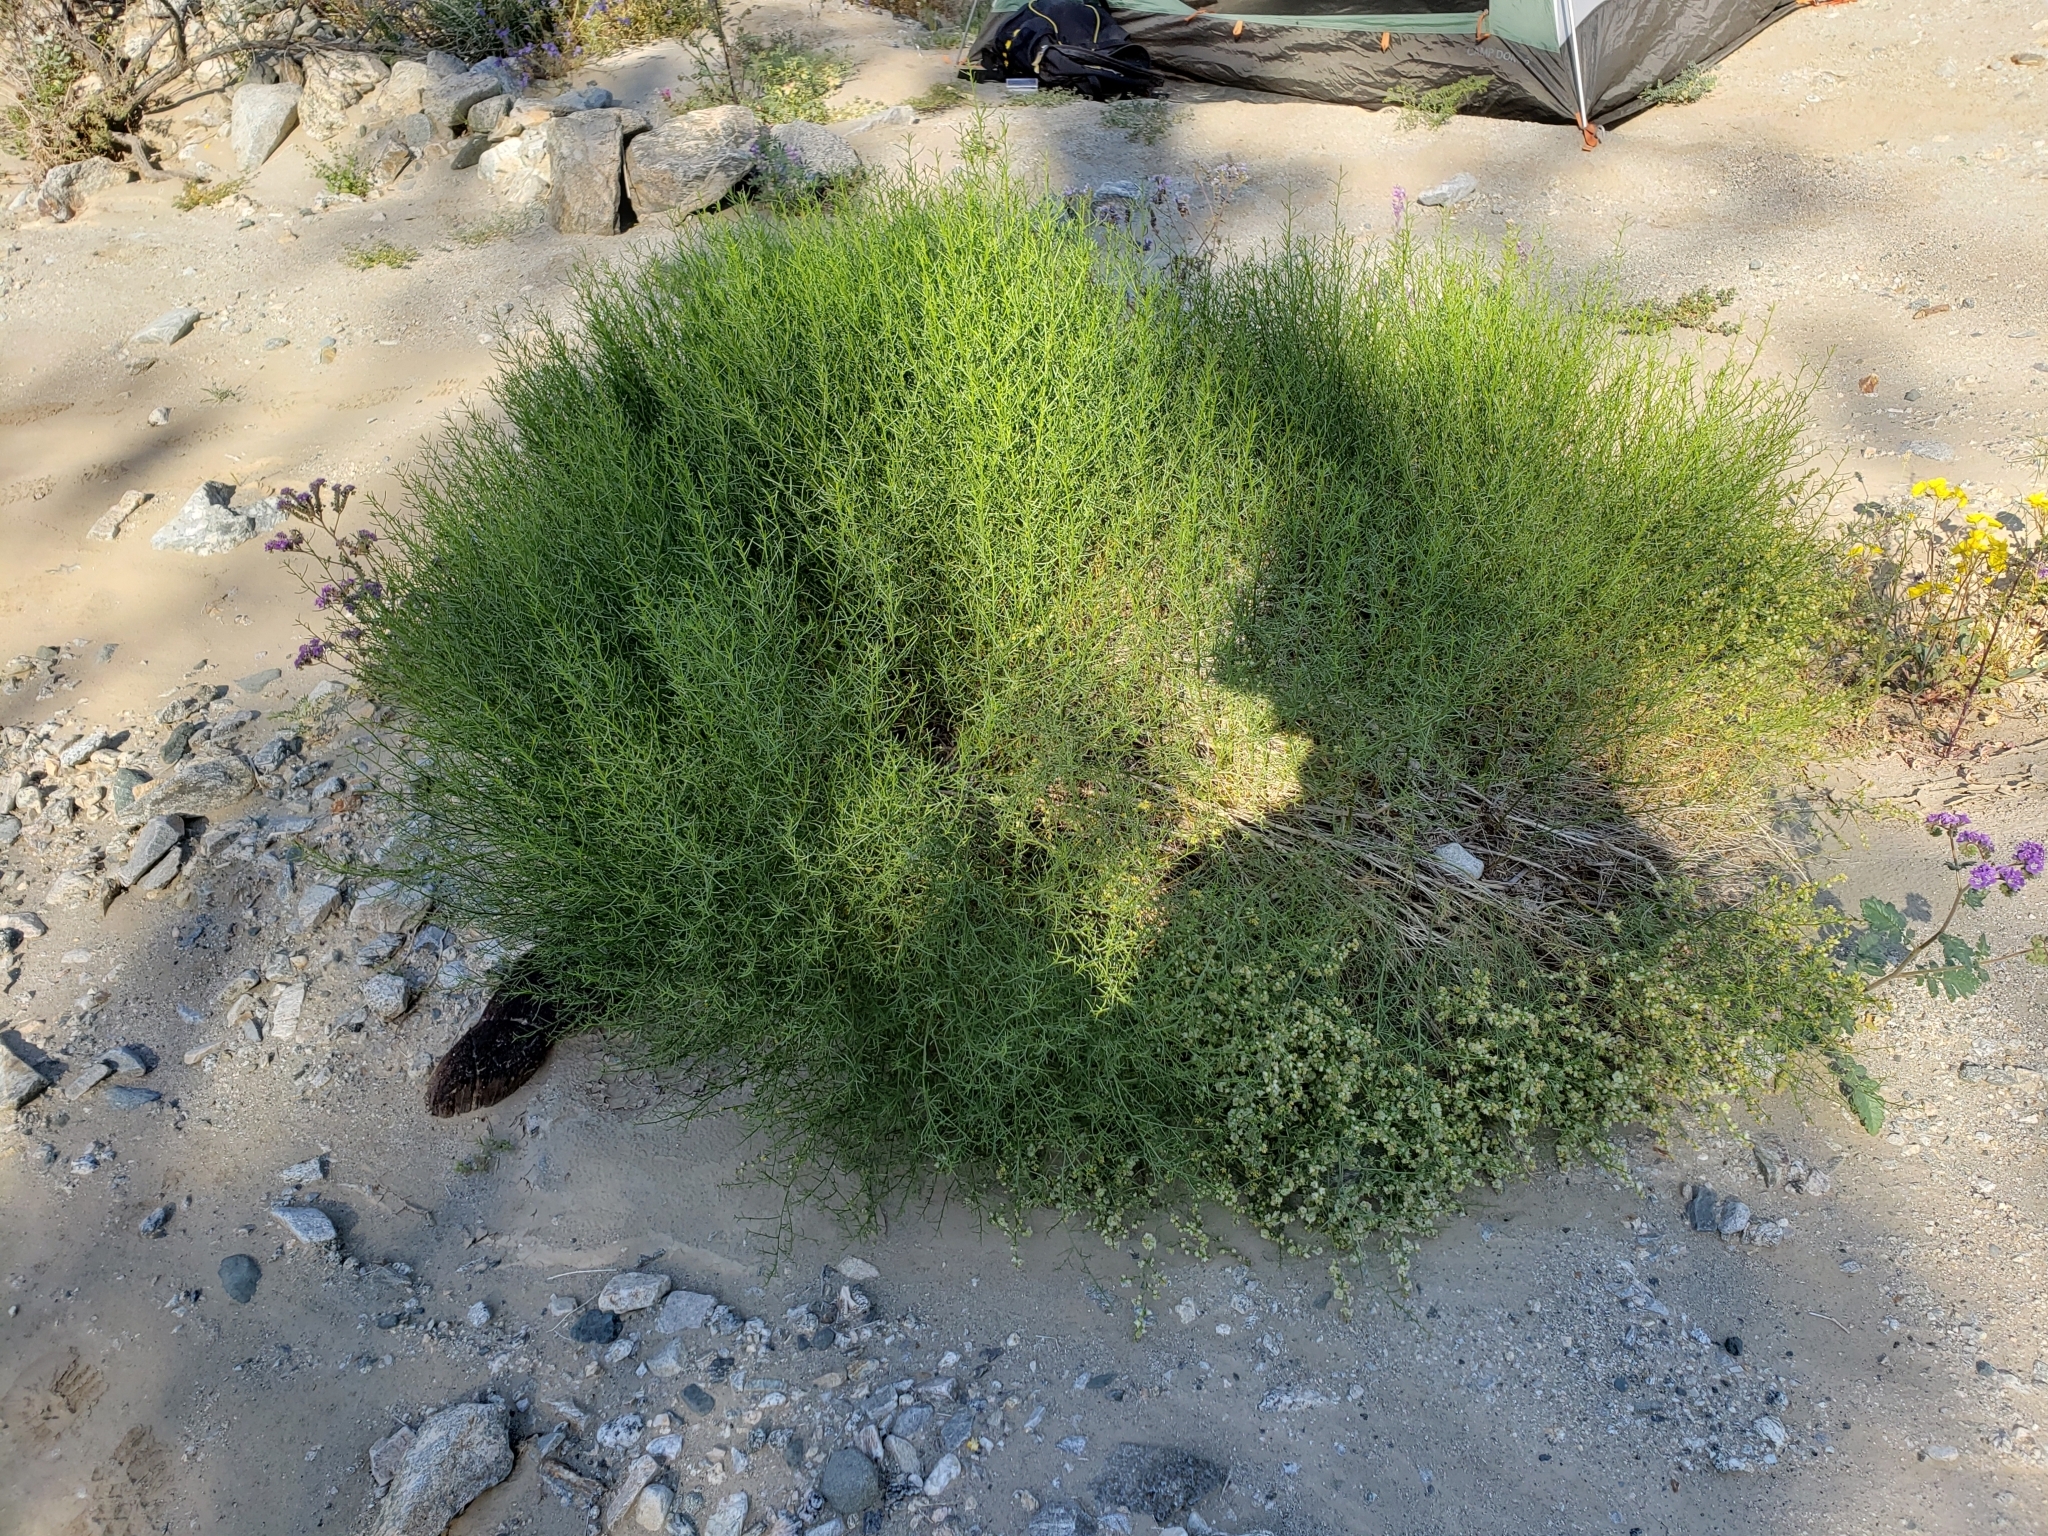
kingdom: Plantae
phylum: Tracheophyta
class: Magnoliopsida
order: Asterales
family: Asteraceae
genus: Ambrosia
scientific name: Ambrosia salsola
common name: Burrobrush
